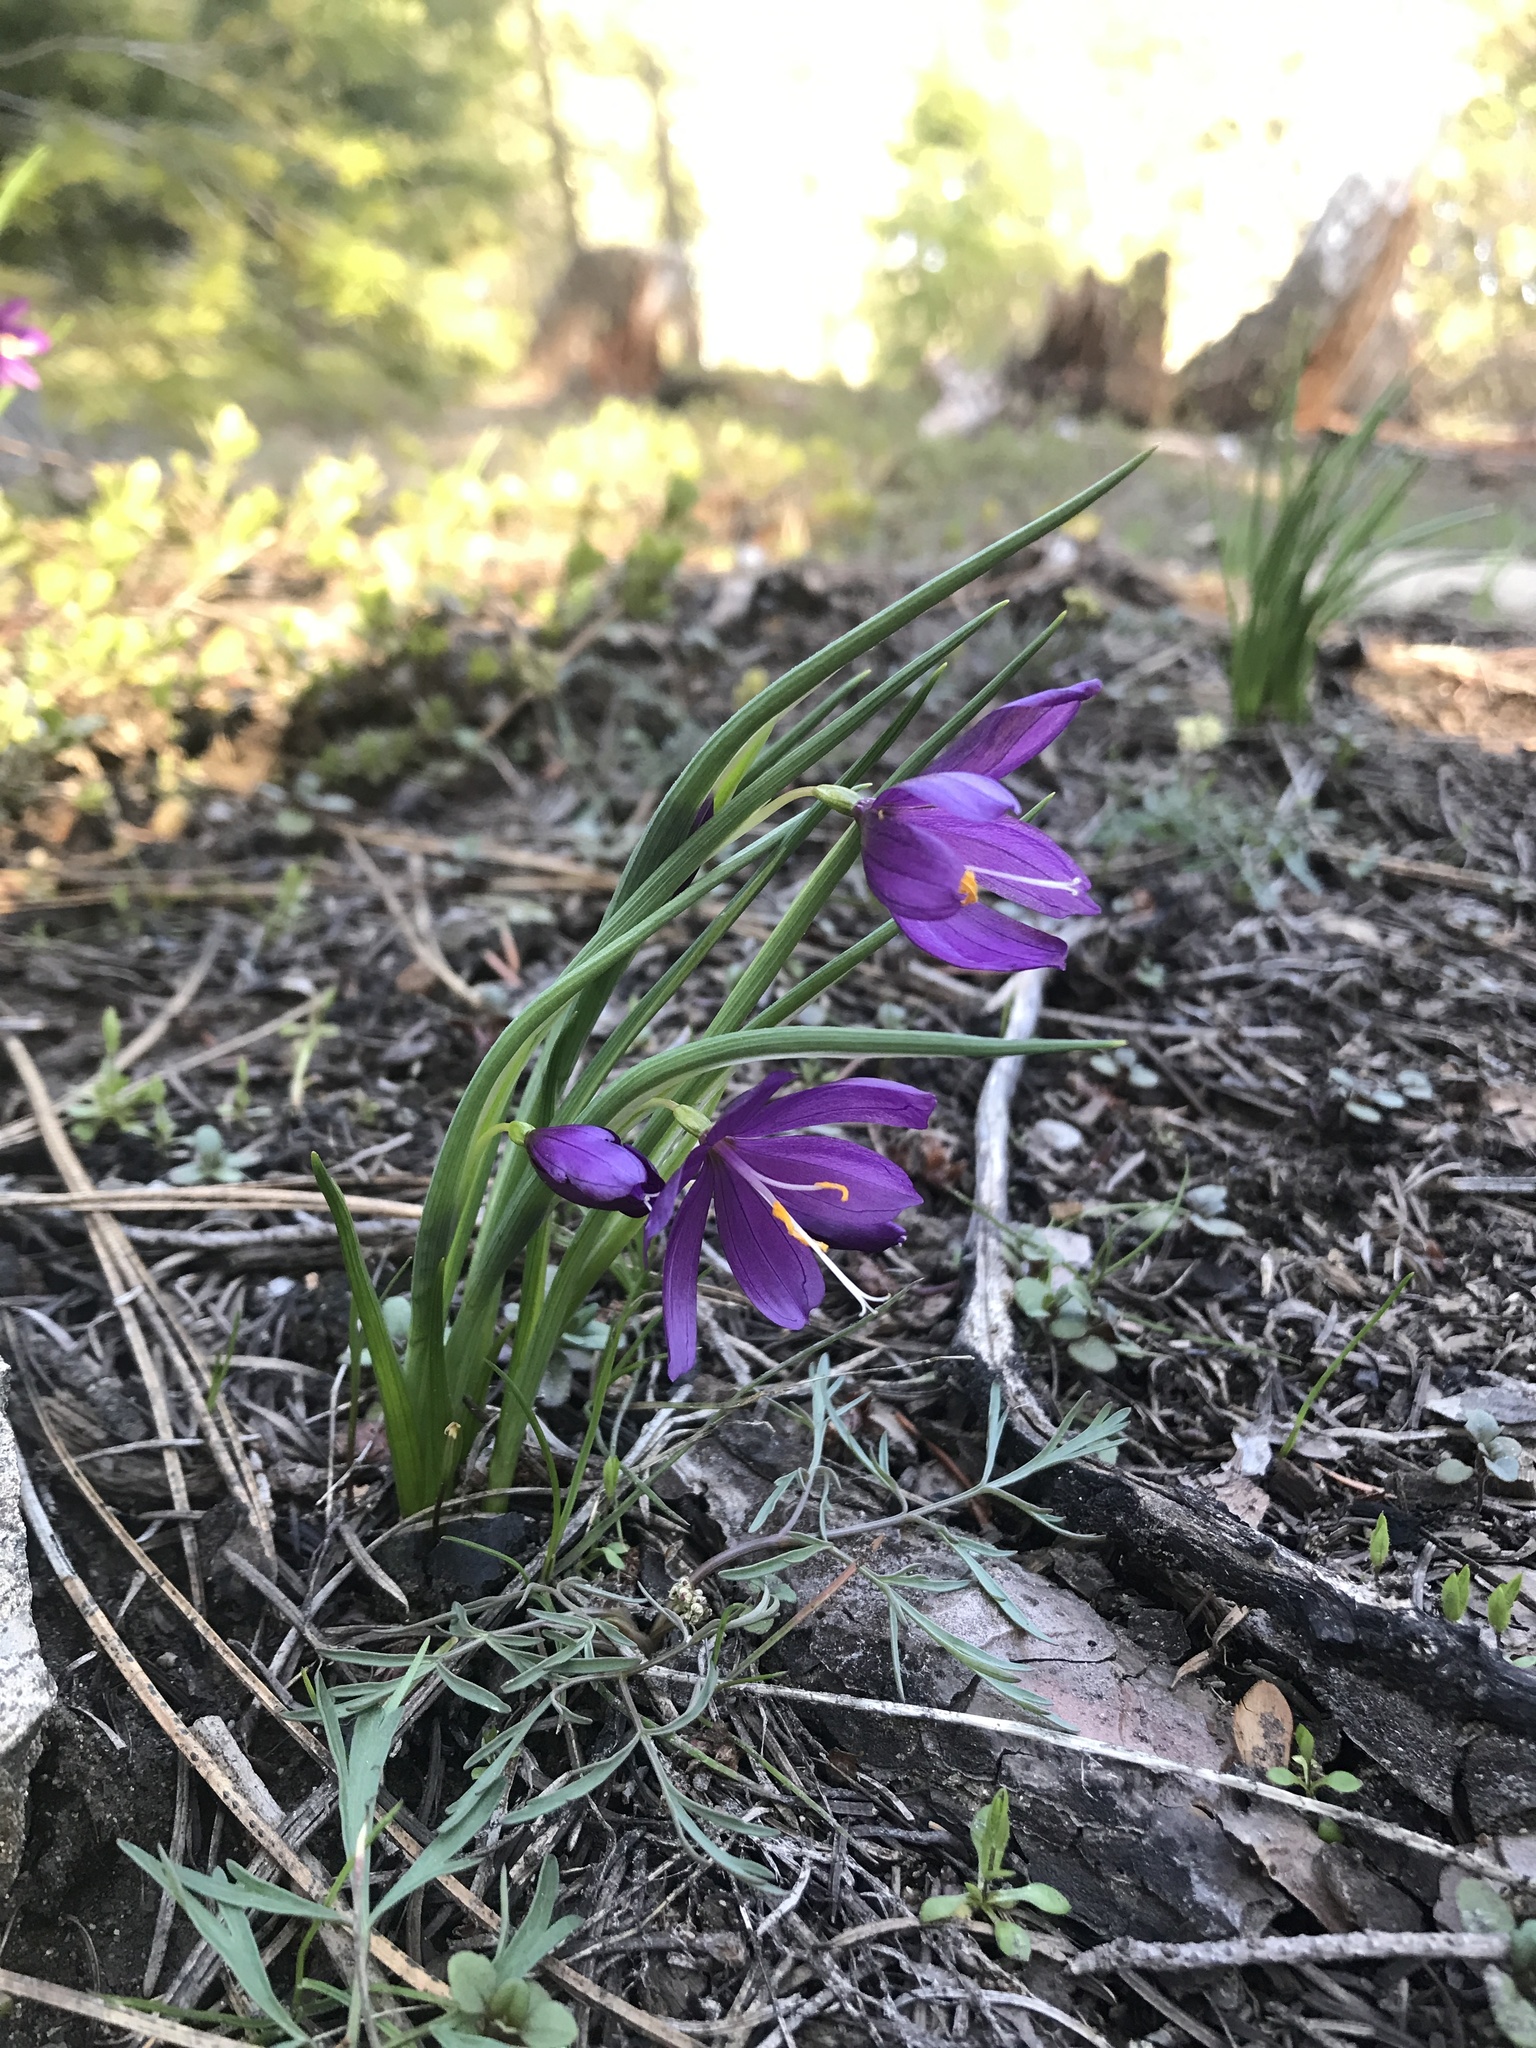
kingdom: Plantae
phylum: Tracheophyta
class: Liliopsida
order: Asparagales
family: Iridaceae
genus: Olsynium
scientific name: Olsynium douglasii
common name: Douglas' grasswidow
